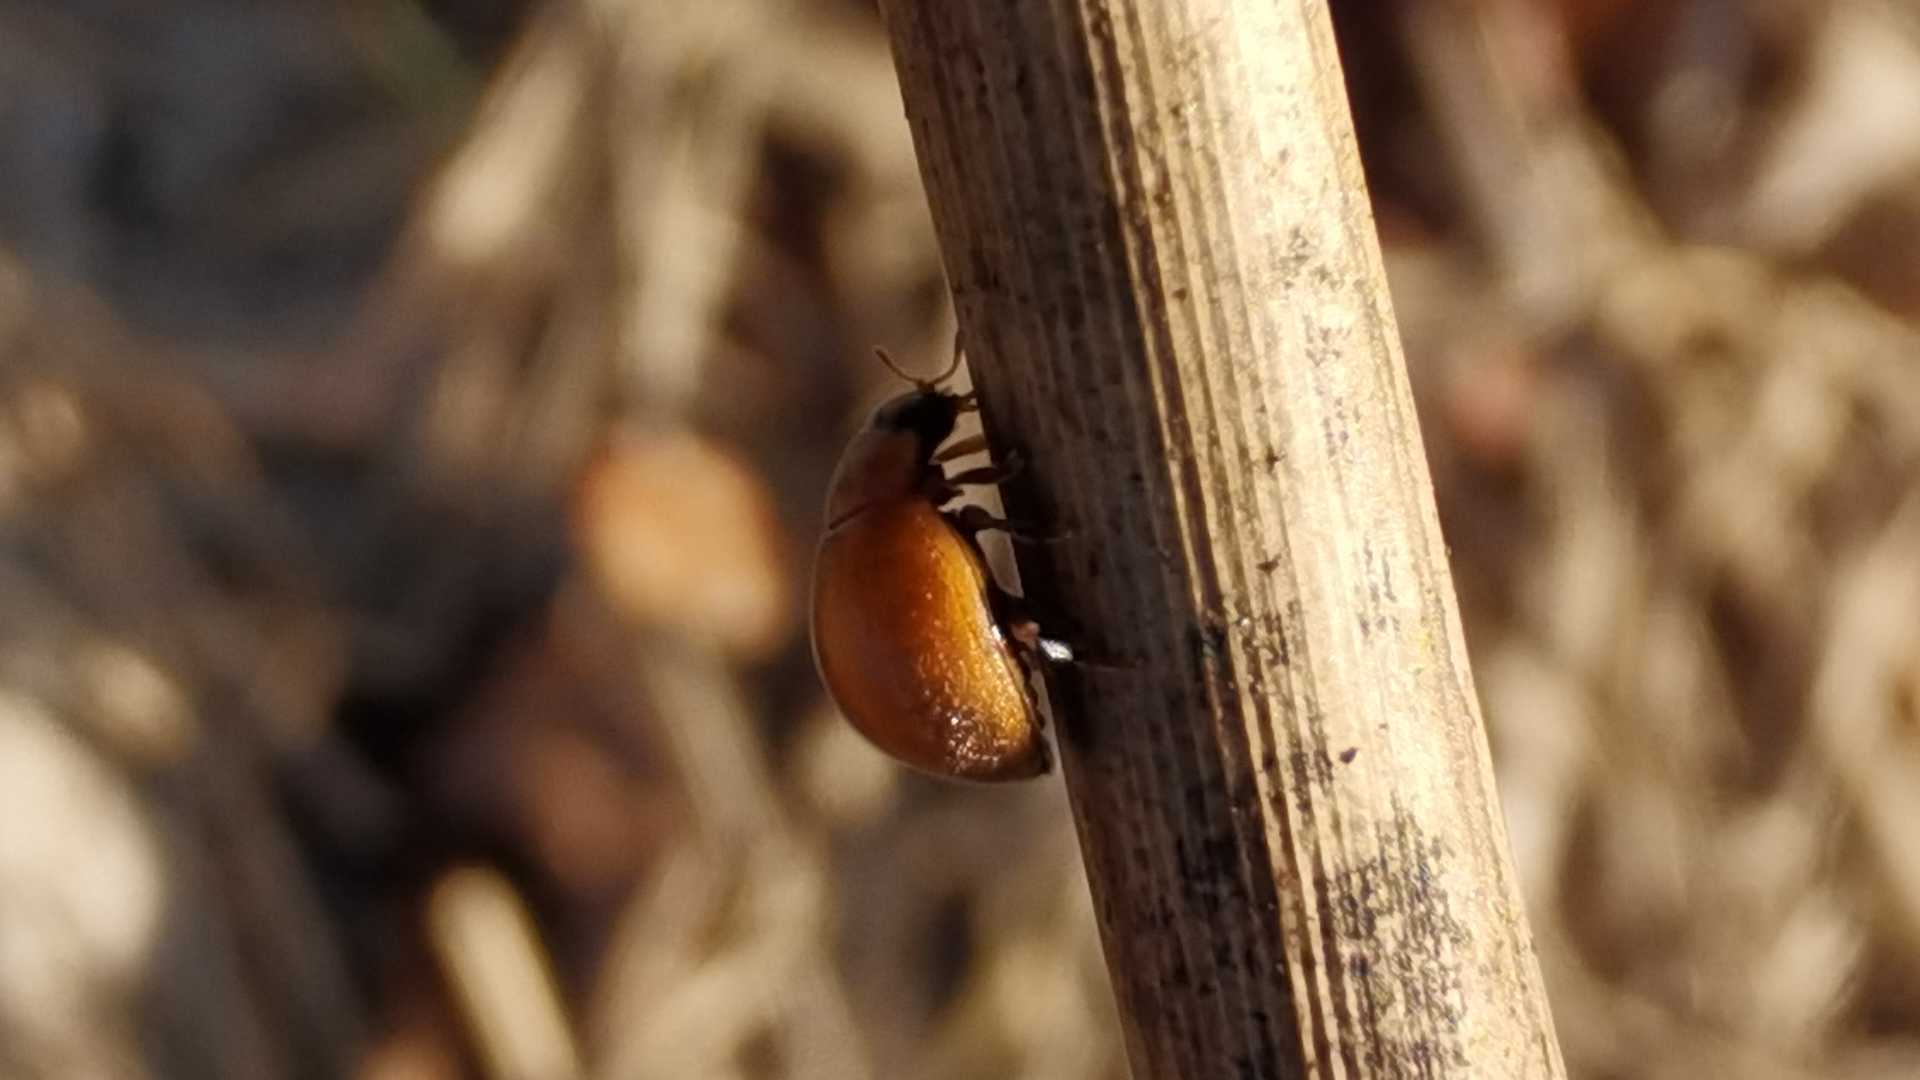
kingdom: Animalia
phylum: Arthropoda
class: Insecta
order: Coleoptera
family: Coccinellidae
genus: Cynegetis
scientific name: Cynegetis impunctata
